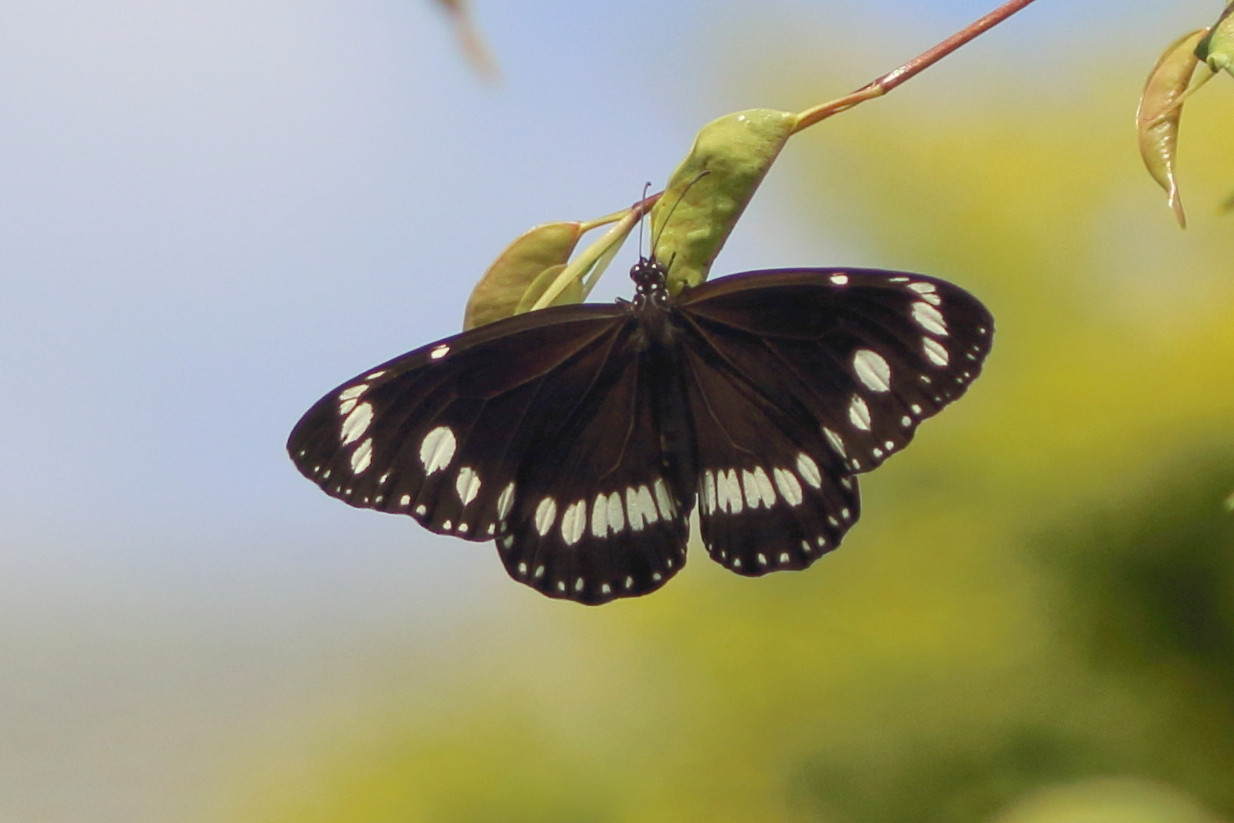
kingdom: Animalia
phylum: Arthropoda
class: Insecta
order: Lepidoptera
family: Nymphalidae
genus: Euploea
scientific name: Euploea core
